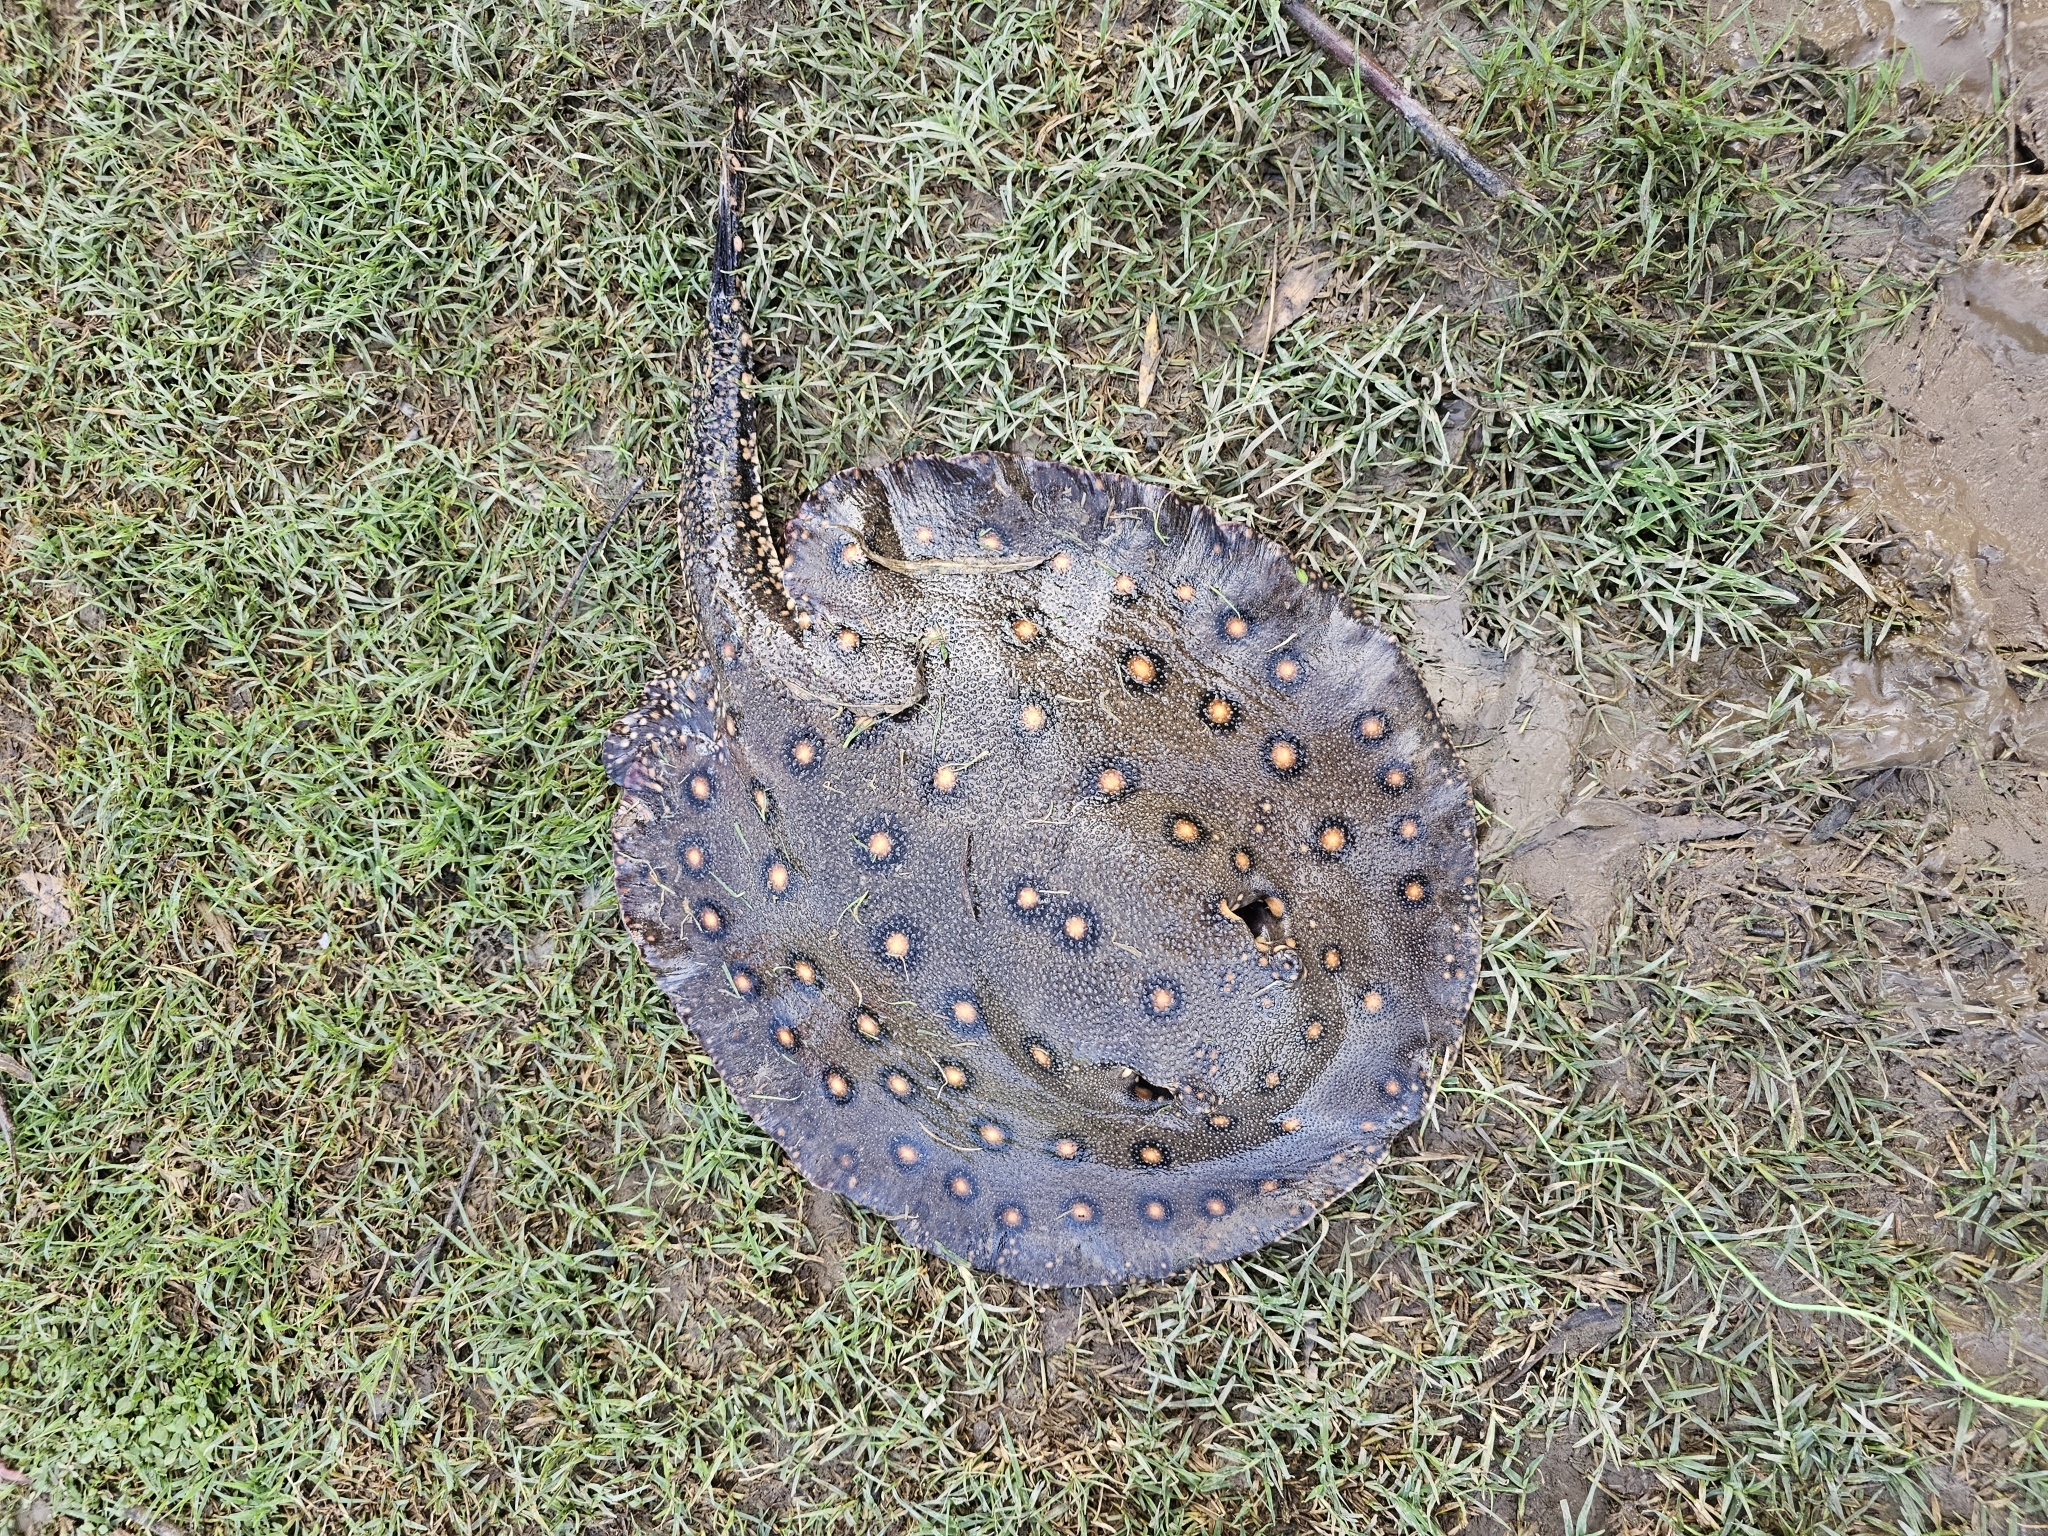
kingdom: Animalia
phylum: Chordata
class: Elasmobranchii
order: Myliobatiformes
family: Potamotrygonidae
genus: Potamotrygon
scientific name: Potamotrygon motoro
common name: South american freshwater stingray
